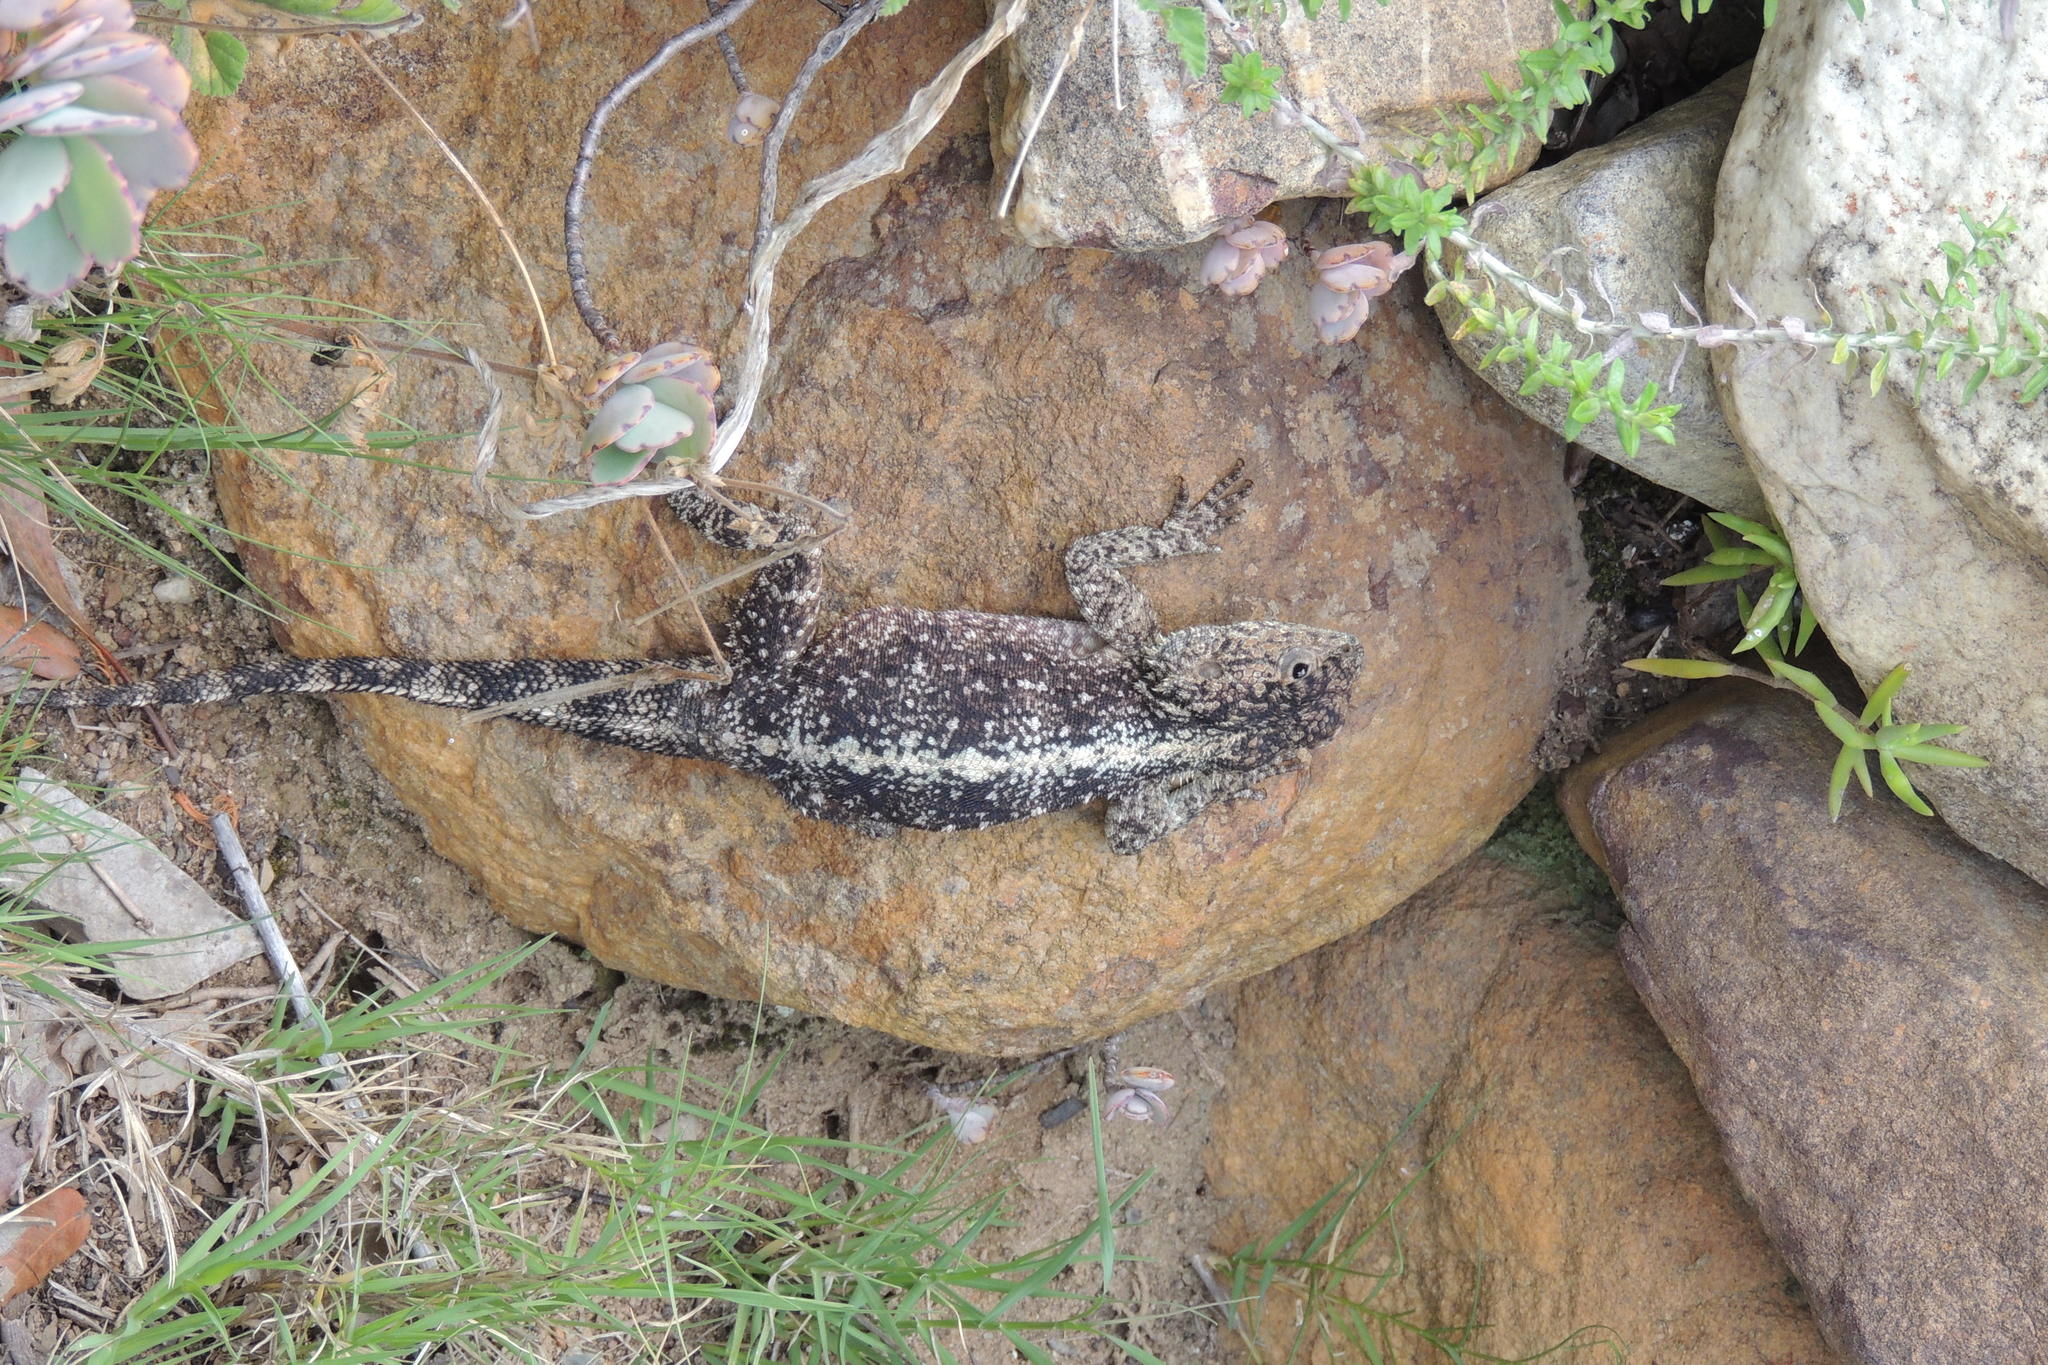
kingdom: Animalia
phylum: Chordata
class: Squamata
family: Agamidae
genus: Agama
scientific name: Agama atra
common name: Southern african rock agama
